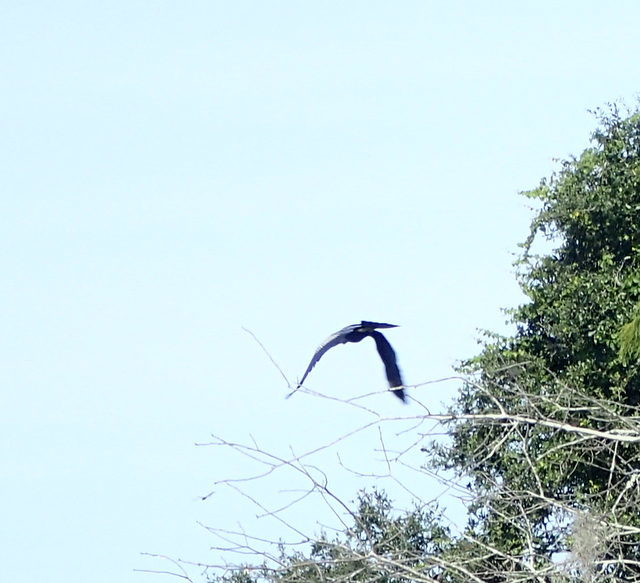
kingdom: Animalia
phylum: Chordata
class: Aves
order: Suliformes
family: Anhingidae
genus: Anhinga
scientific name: Anhinga anhinga
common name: Anhinga
